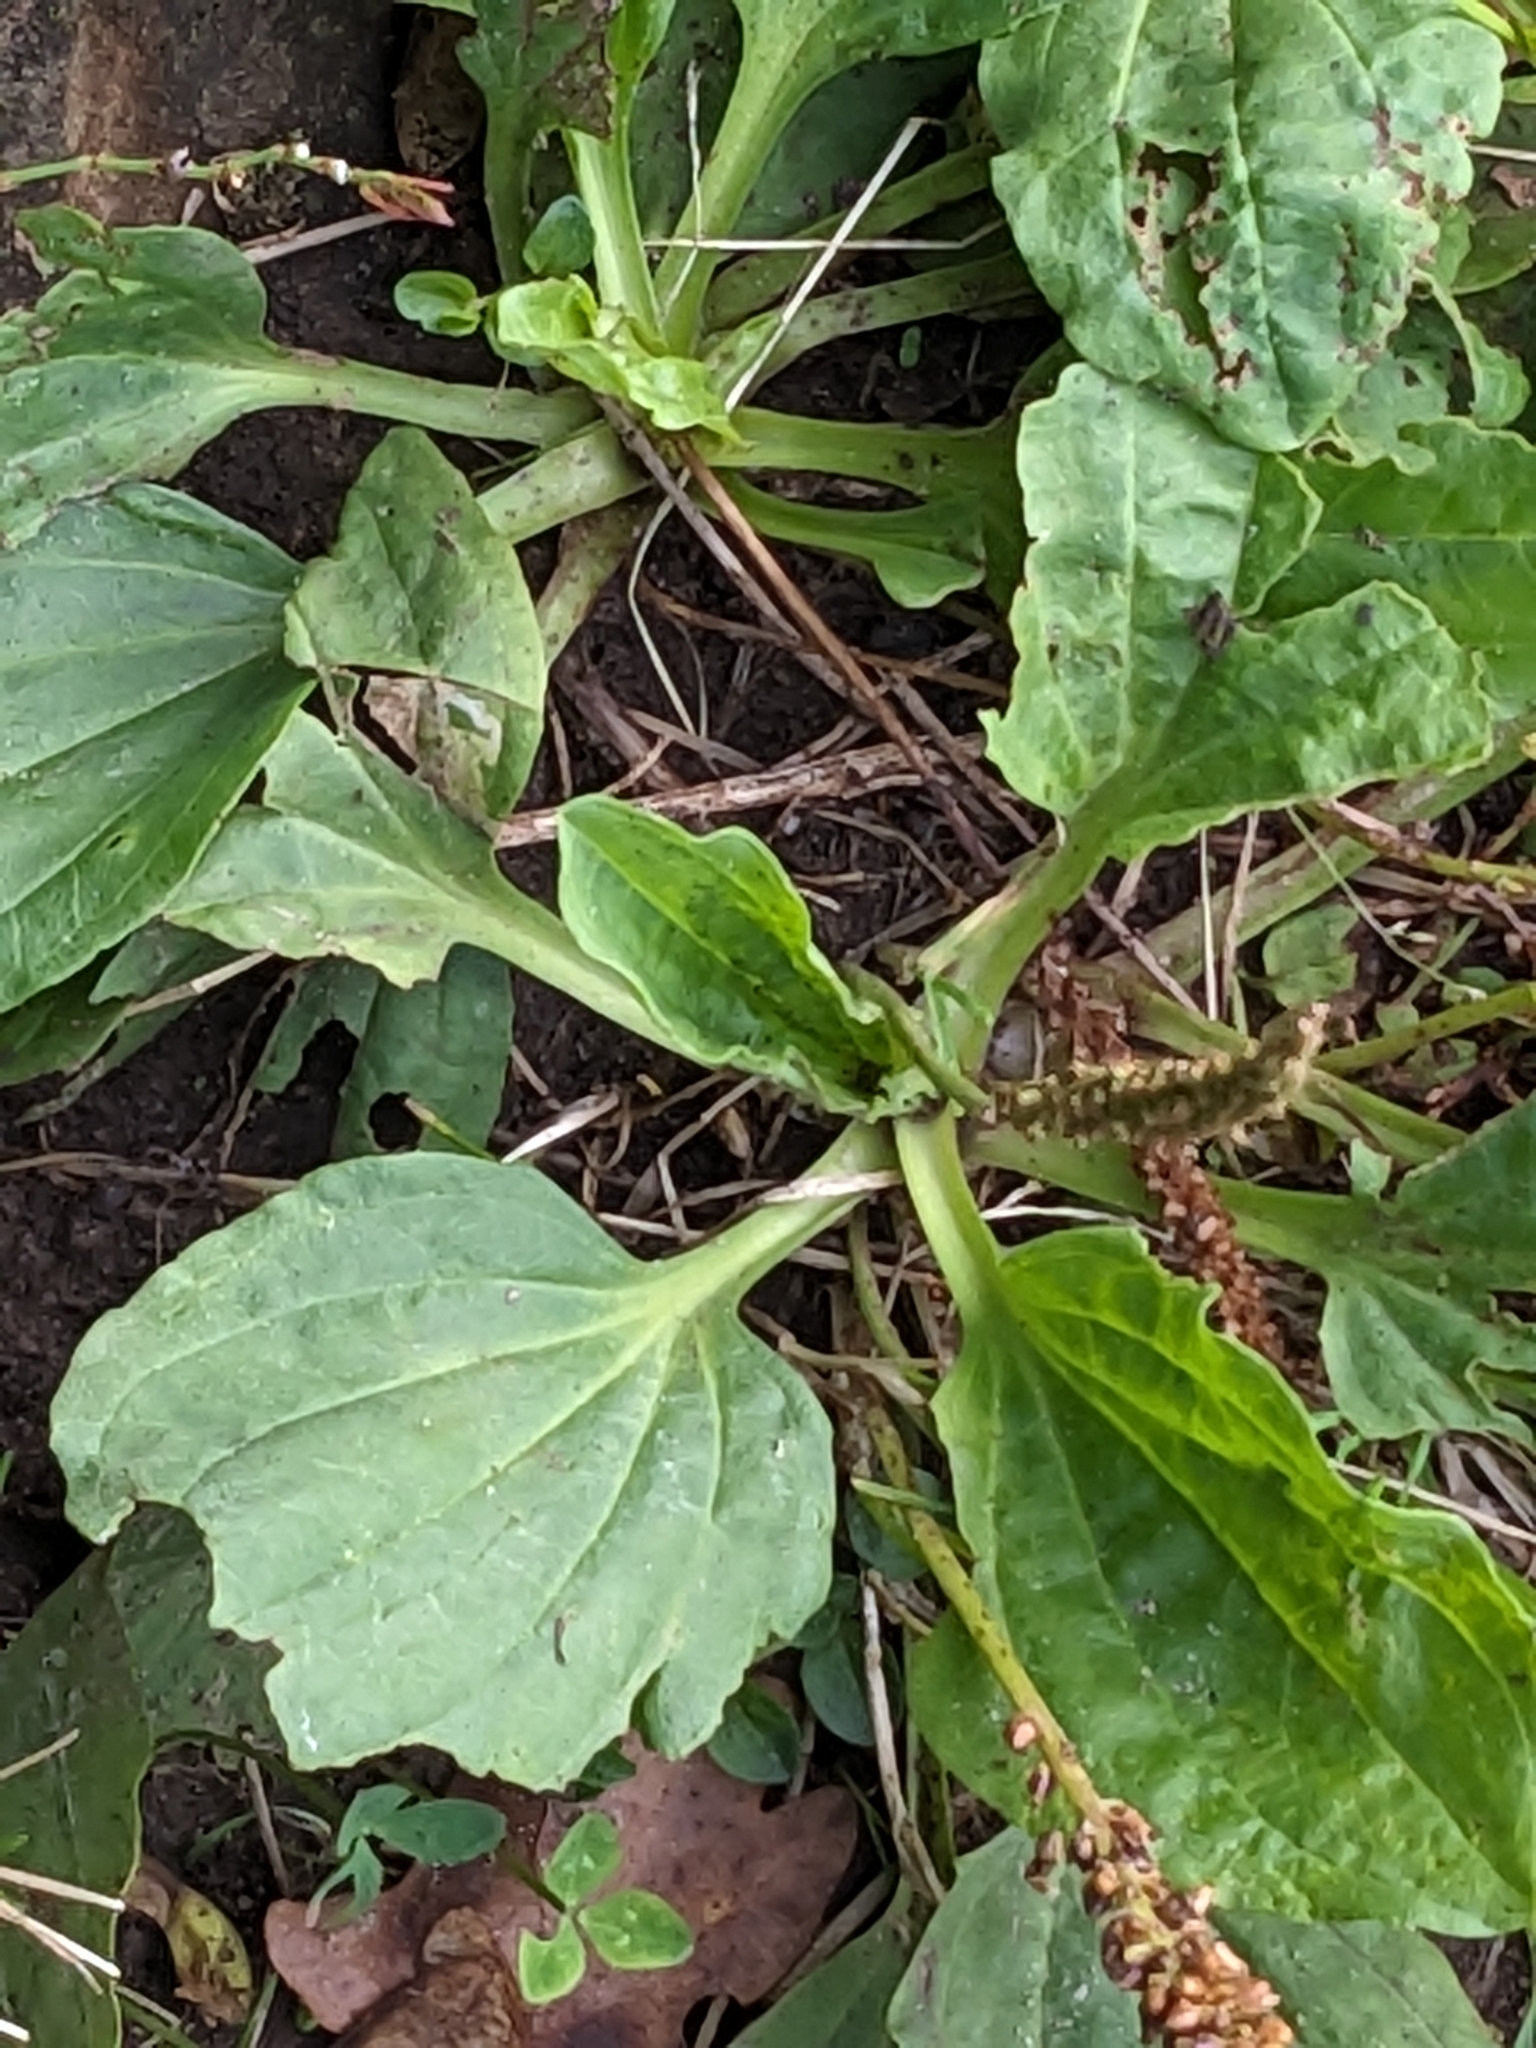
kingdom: Plantae
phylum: Tracheophyta
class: Magnoliopsida
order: Lamiales
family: Plantaginaceae
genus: Plantago
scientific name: Plantago major
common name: Common plantain
